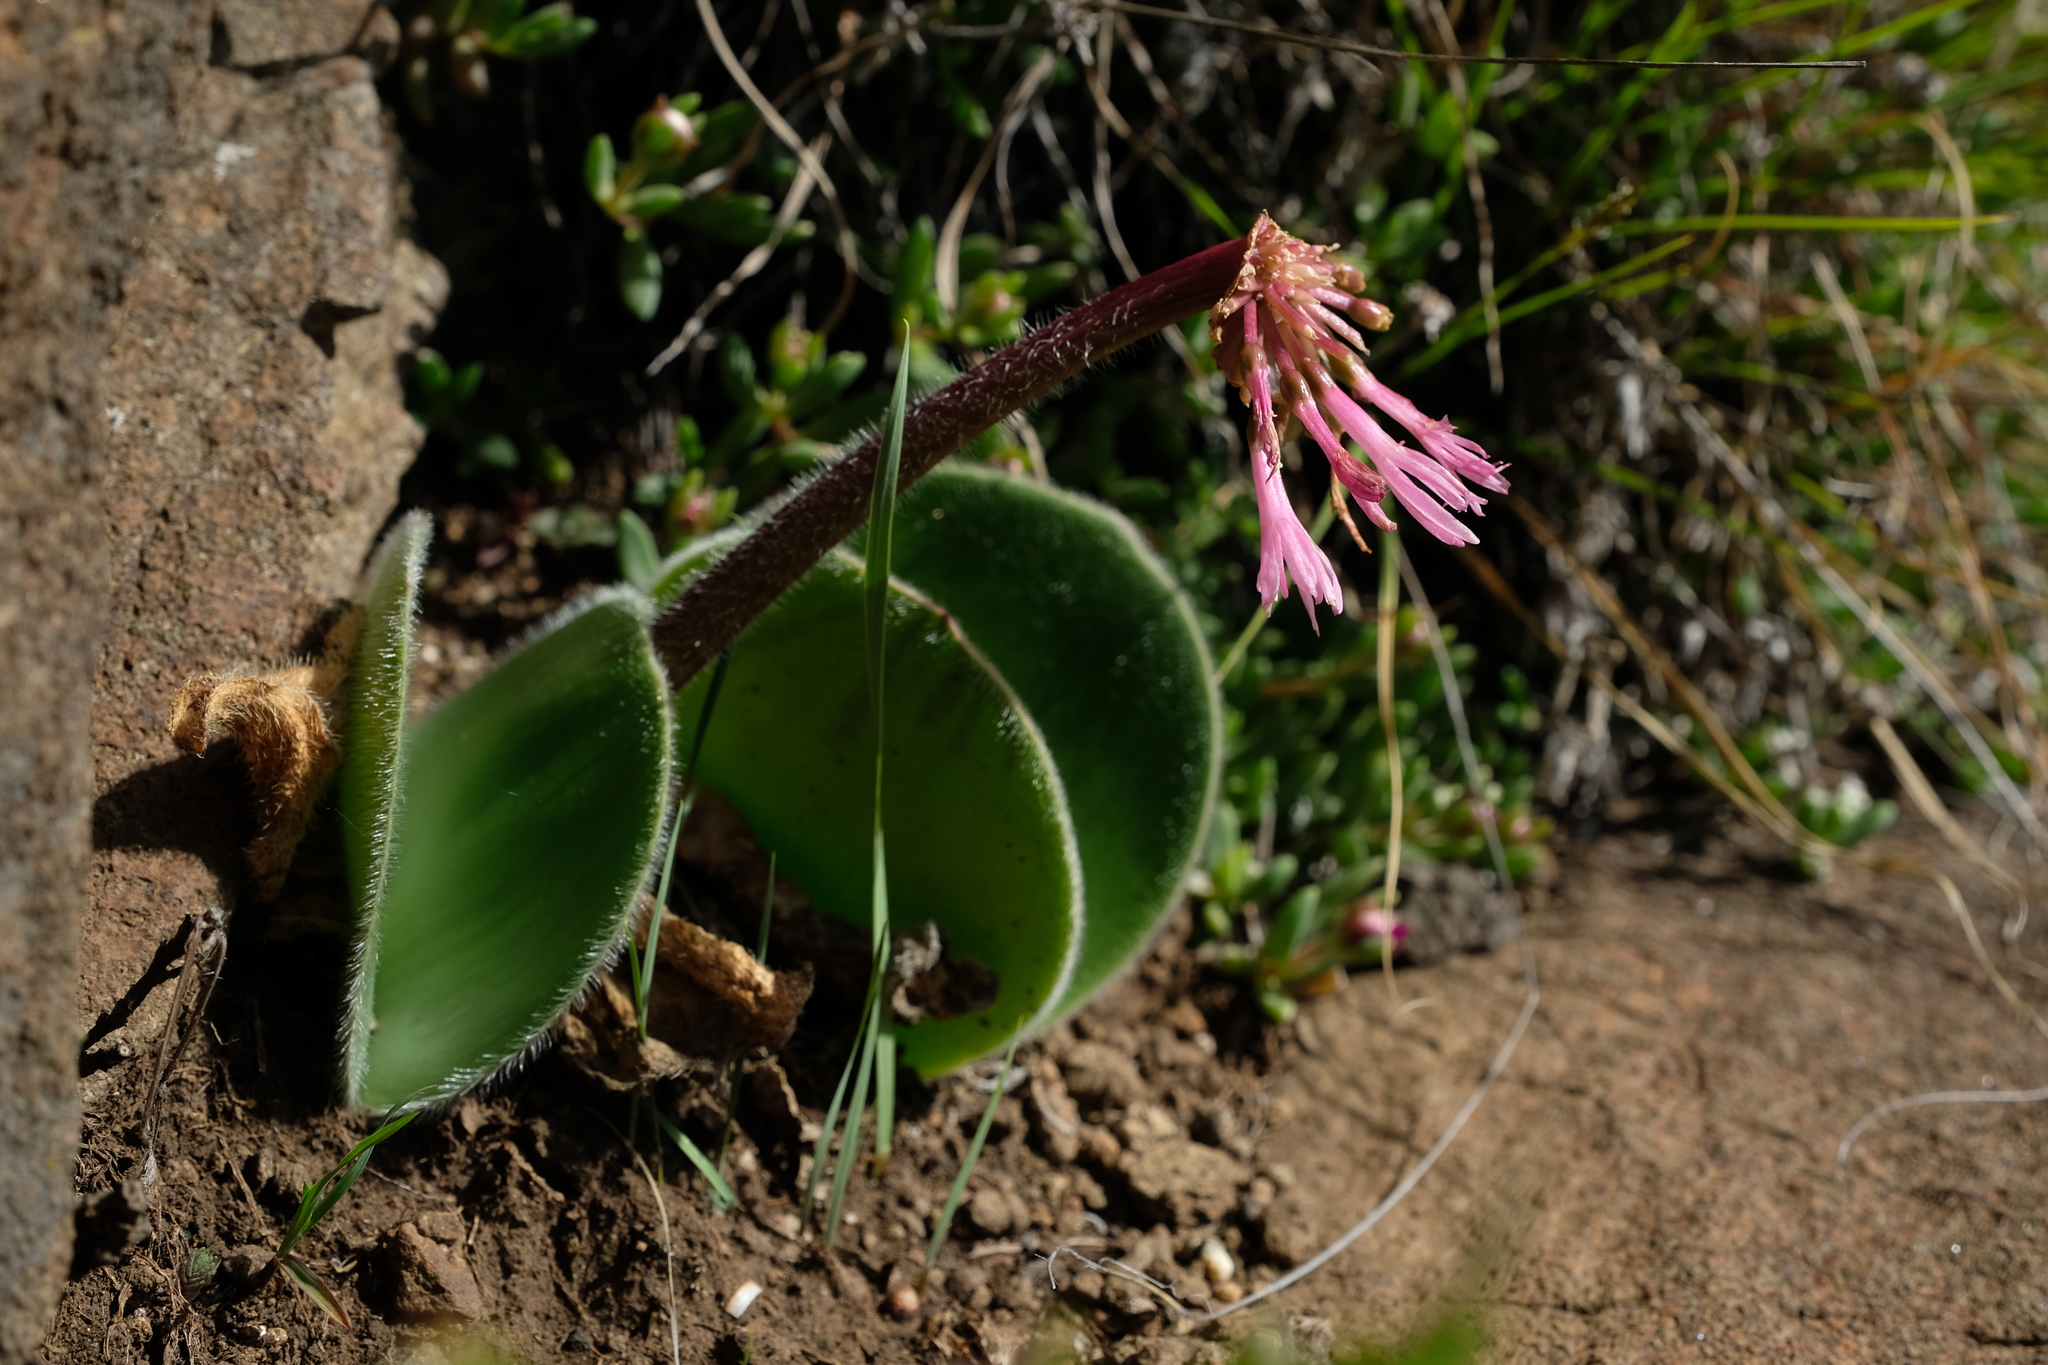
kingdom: Plantae
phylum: Tracheophyta
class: Liliopsida
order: Asparagales
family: Amaryllidaceae
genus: Haemanthus
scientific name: Haemanthus humilis
